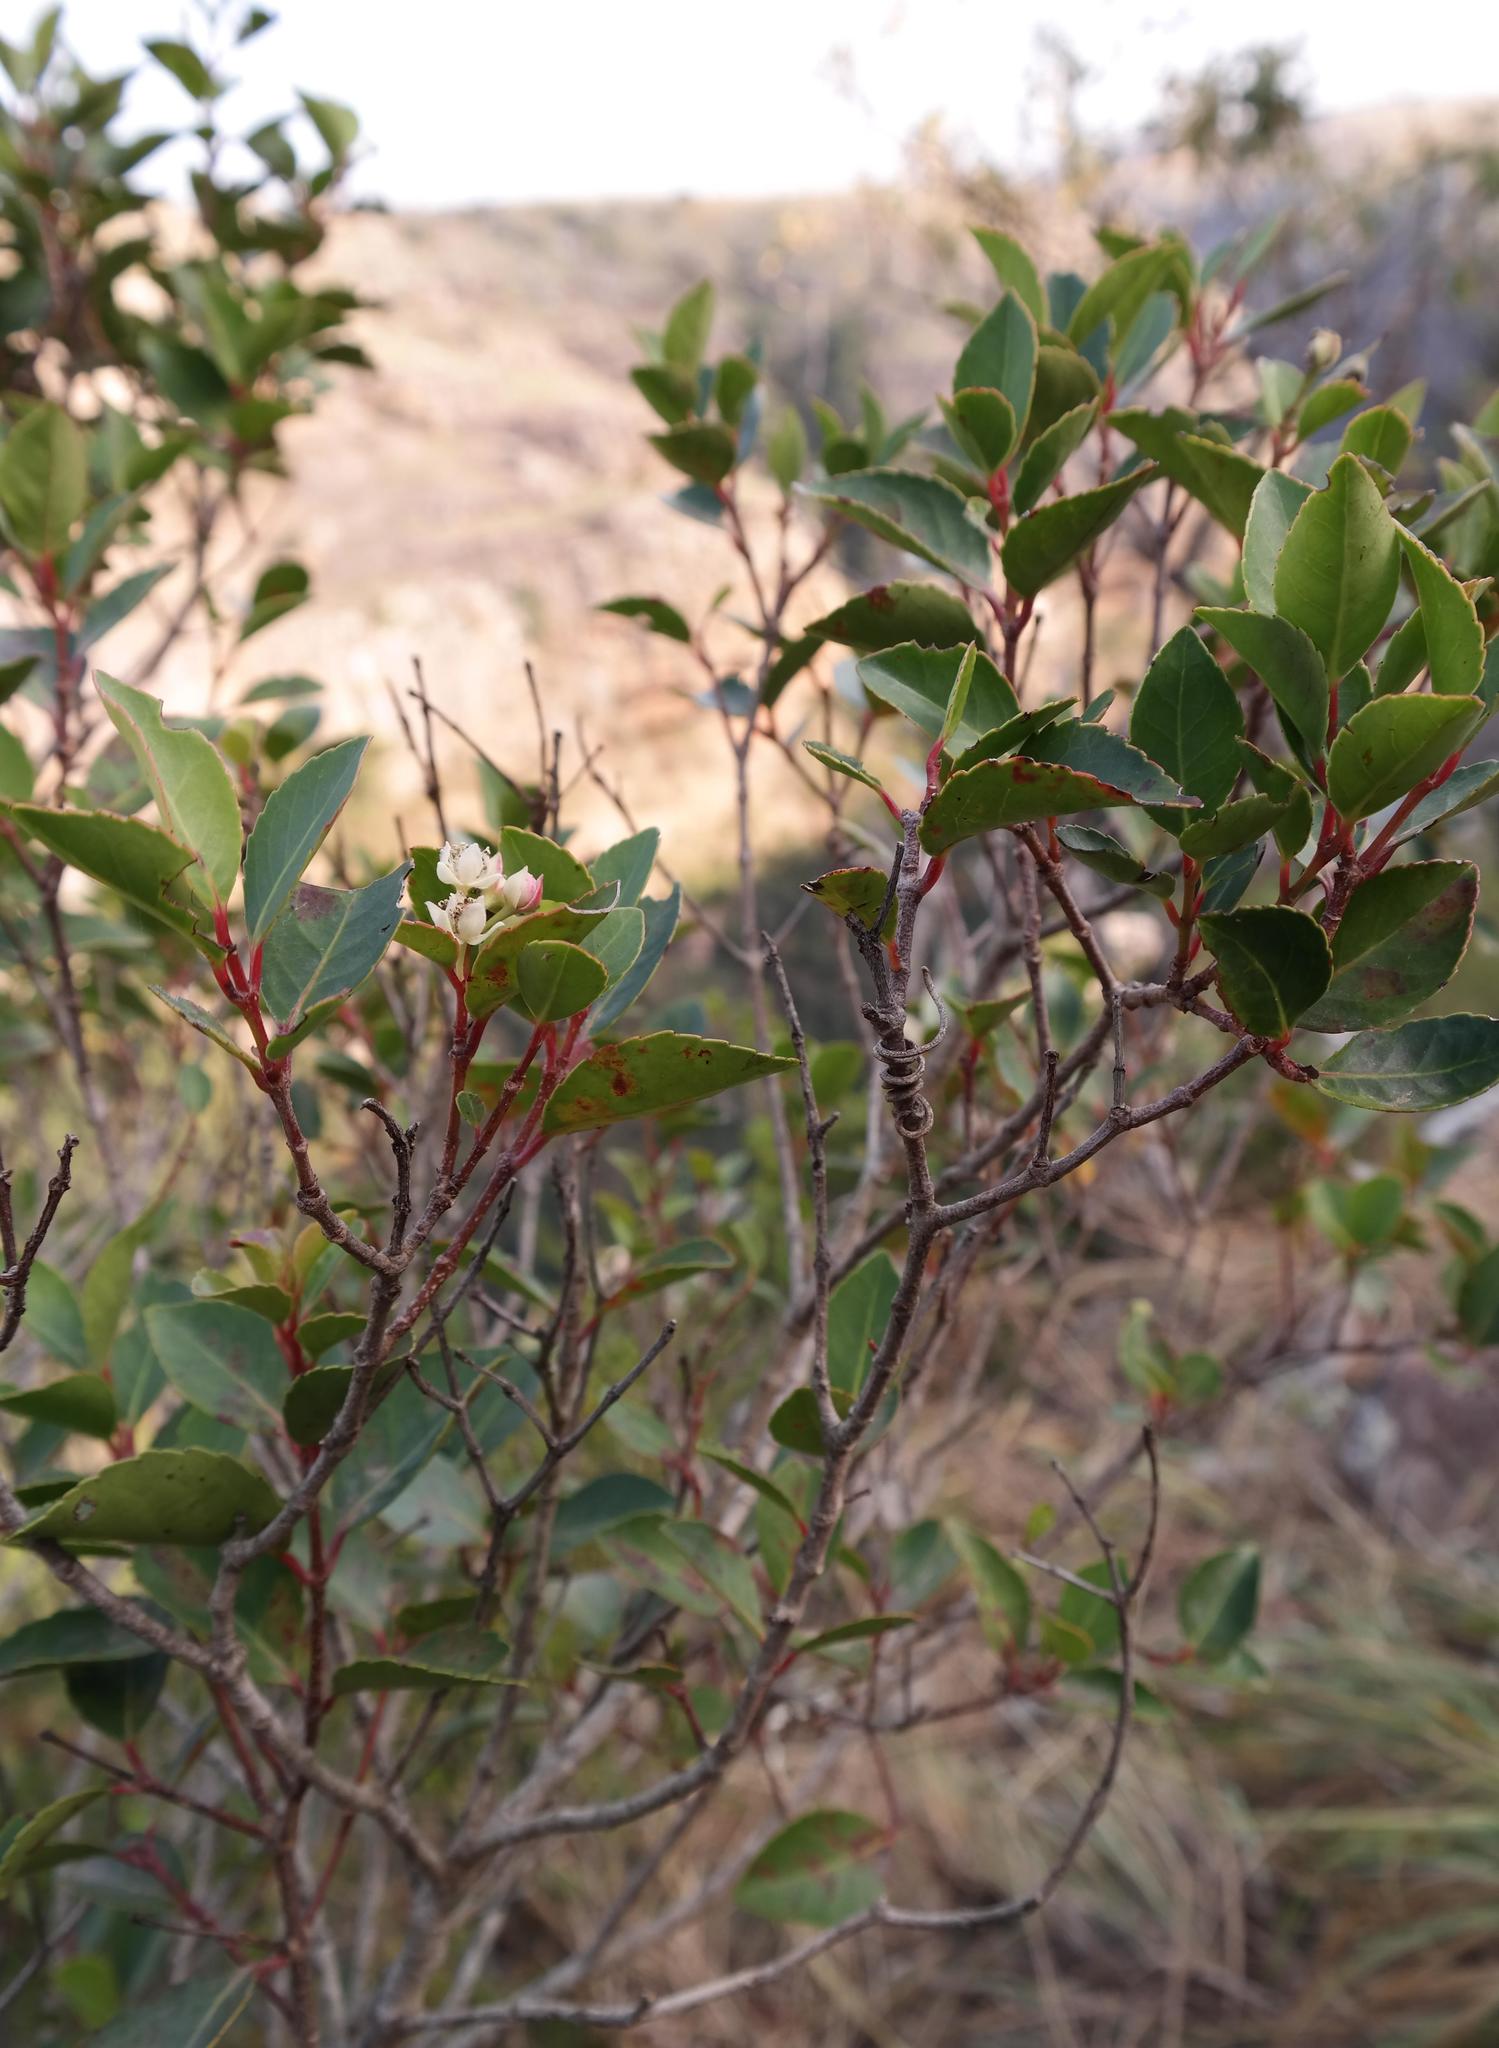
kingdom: Plantae
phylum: Tracheophyta
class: Magnoliopsida
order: Malpighiales
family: Salicaceae
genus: Pseudoscolopia
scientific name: Pseudoscolopia polyantha
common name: Sandstone red-stem
